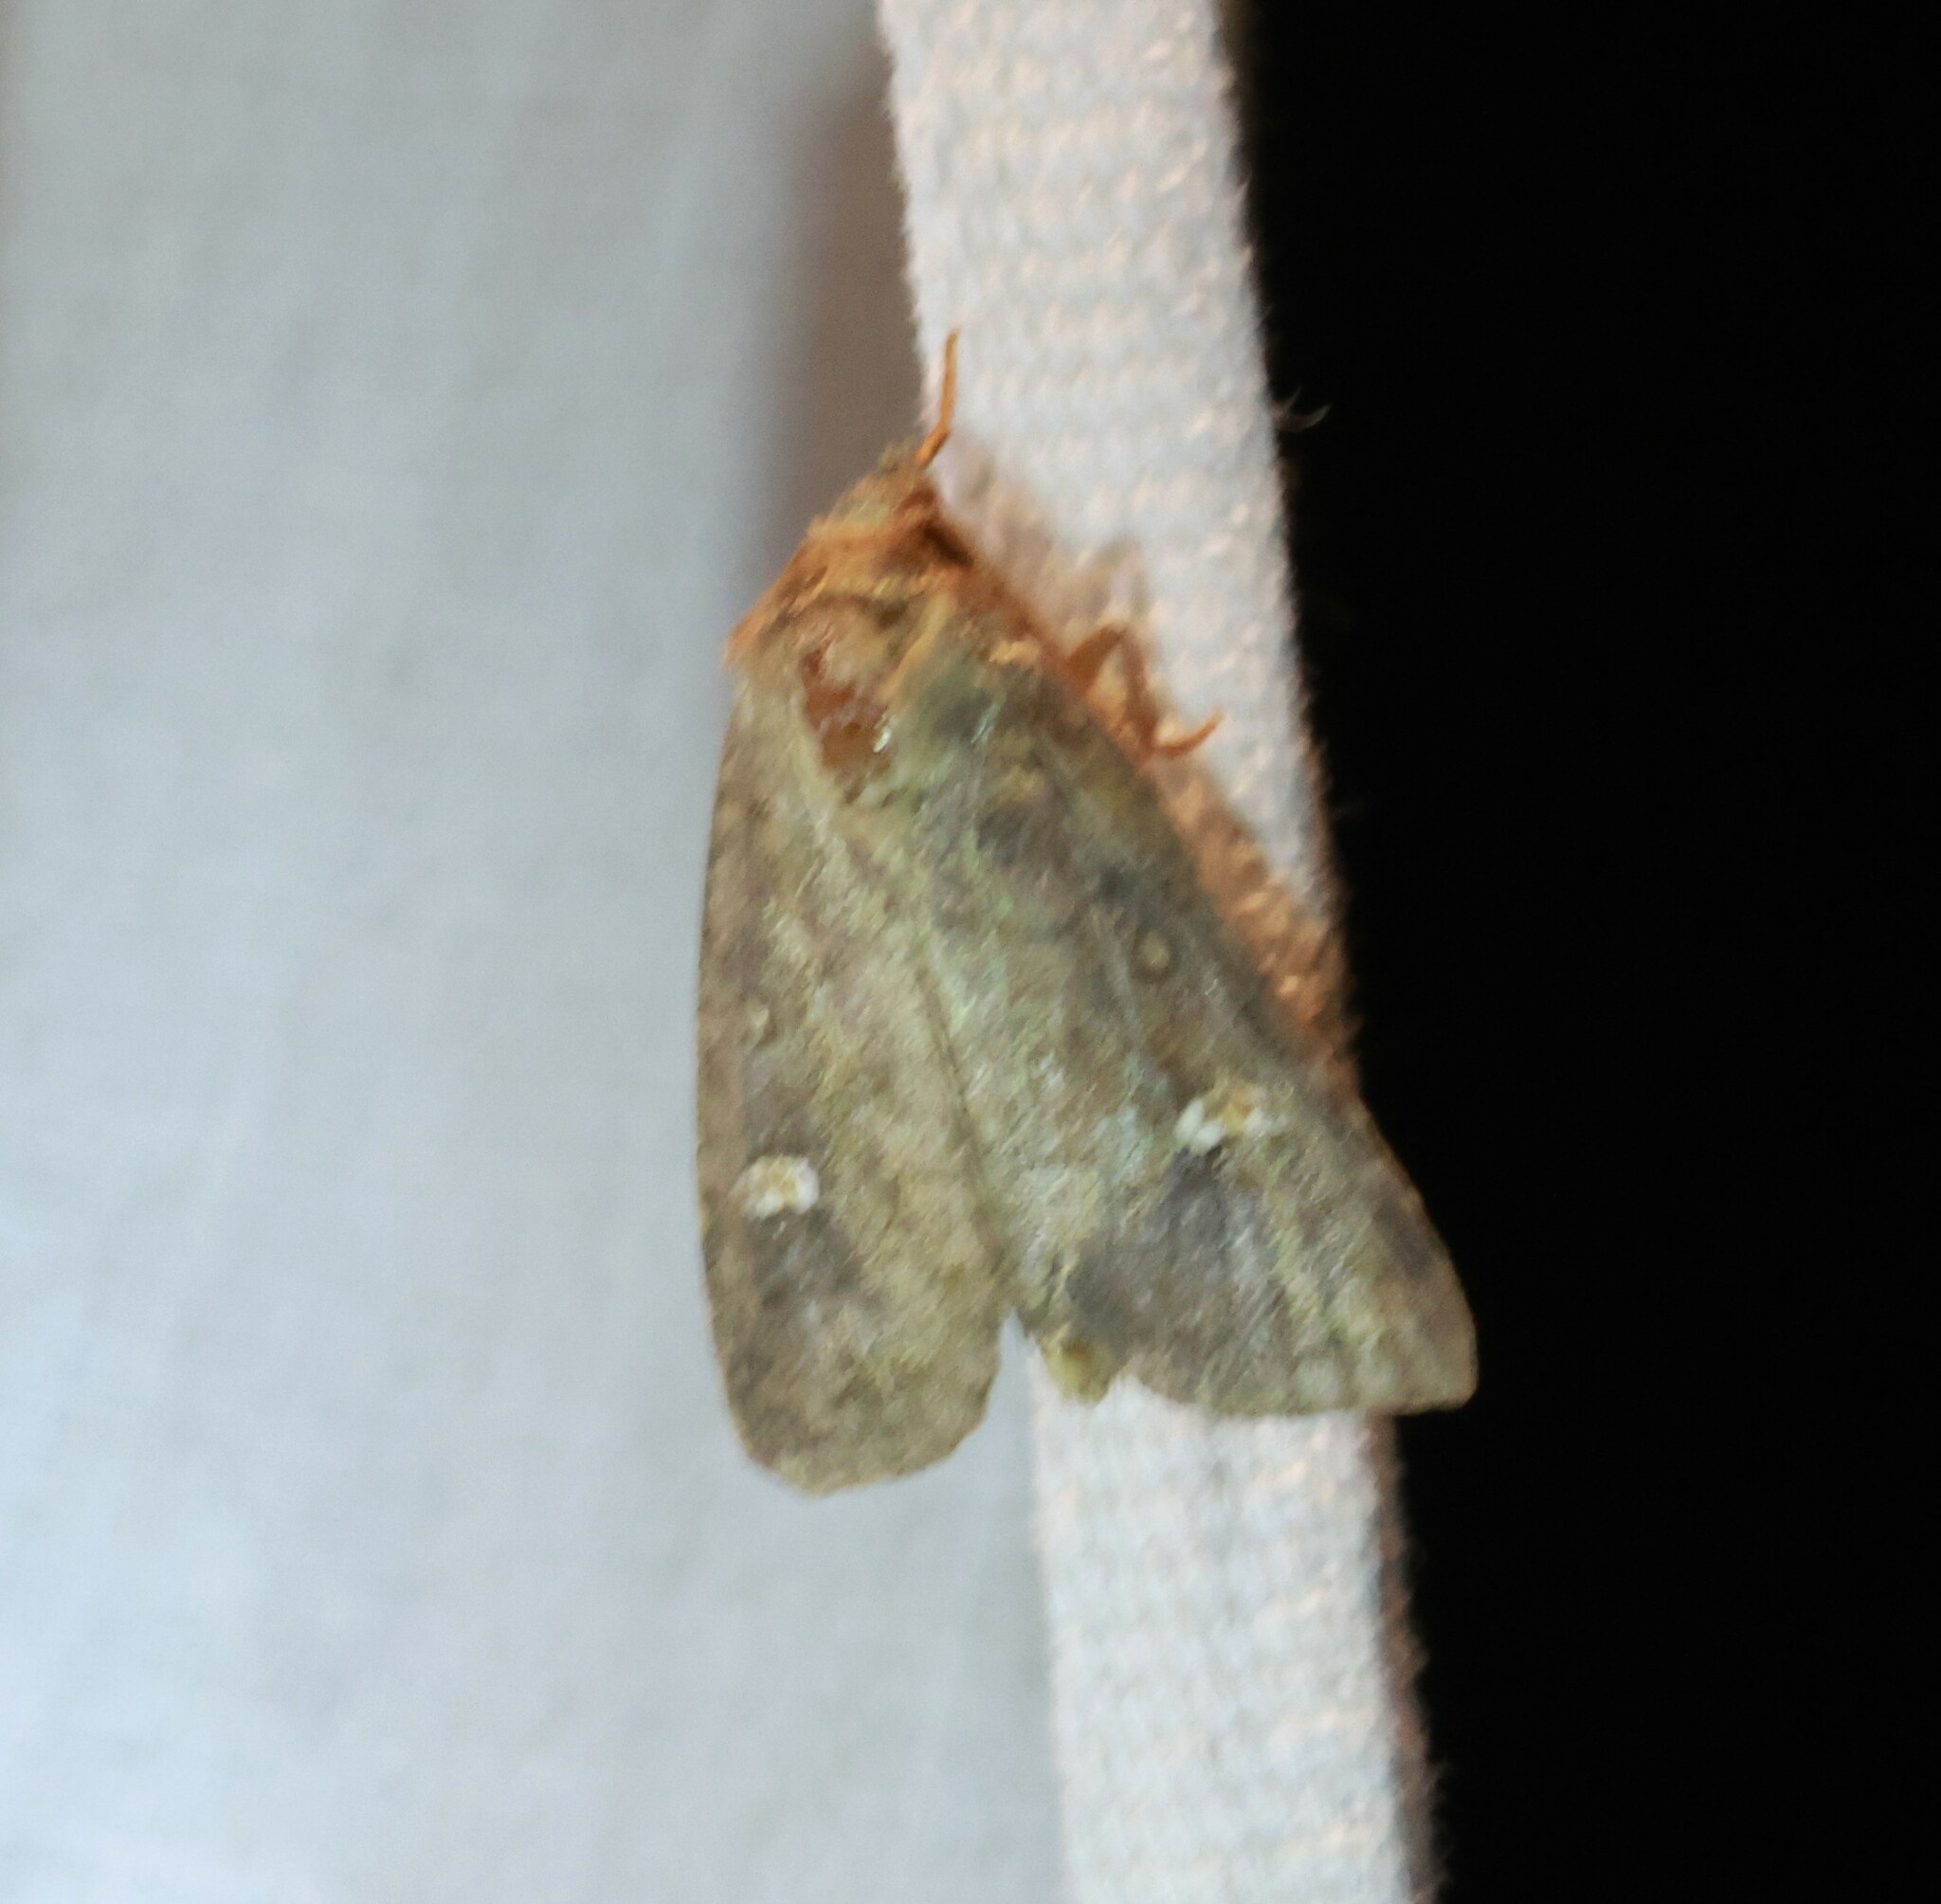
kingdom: Animalia
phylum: Arthropoda
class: Insecta
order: Lepidoptera
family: Noctuidae
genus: Tricholita
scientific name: Tricholita signata
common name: Signate quaker
